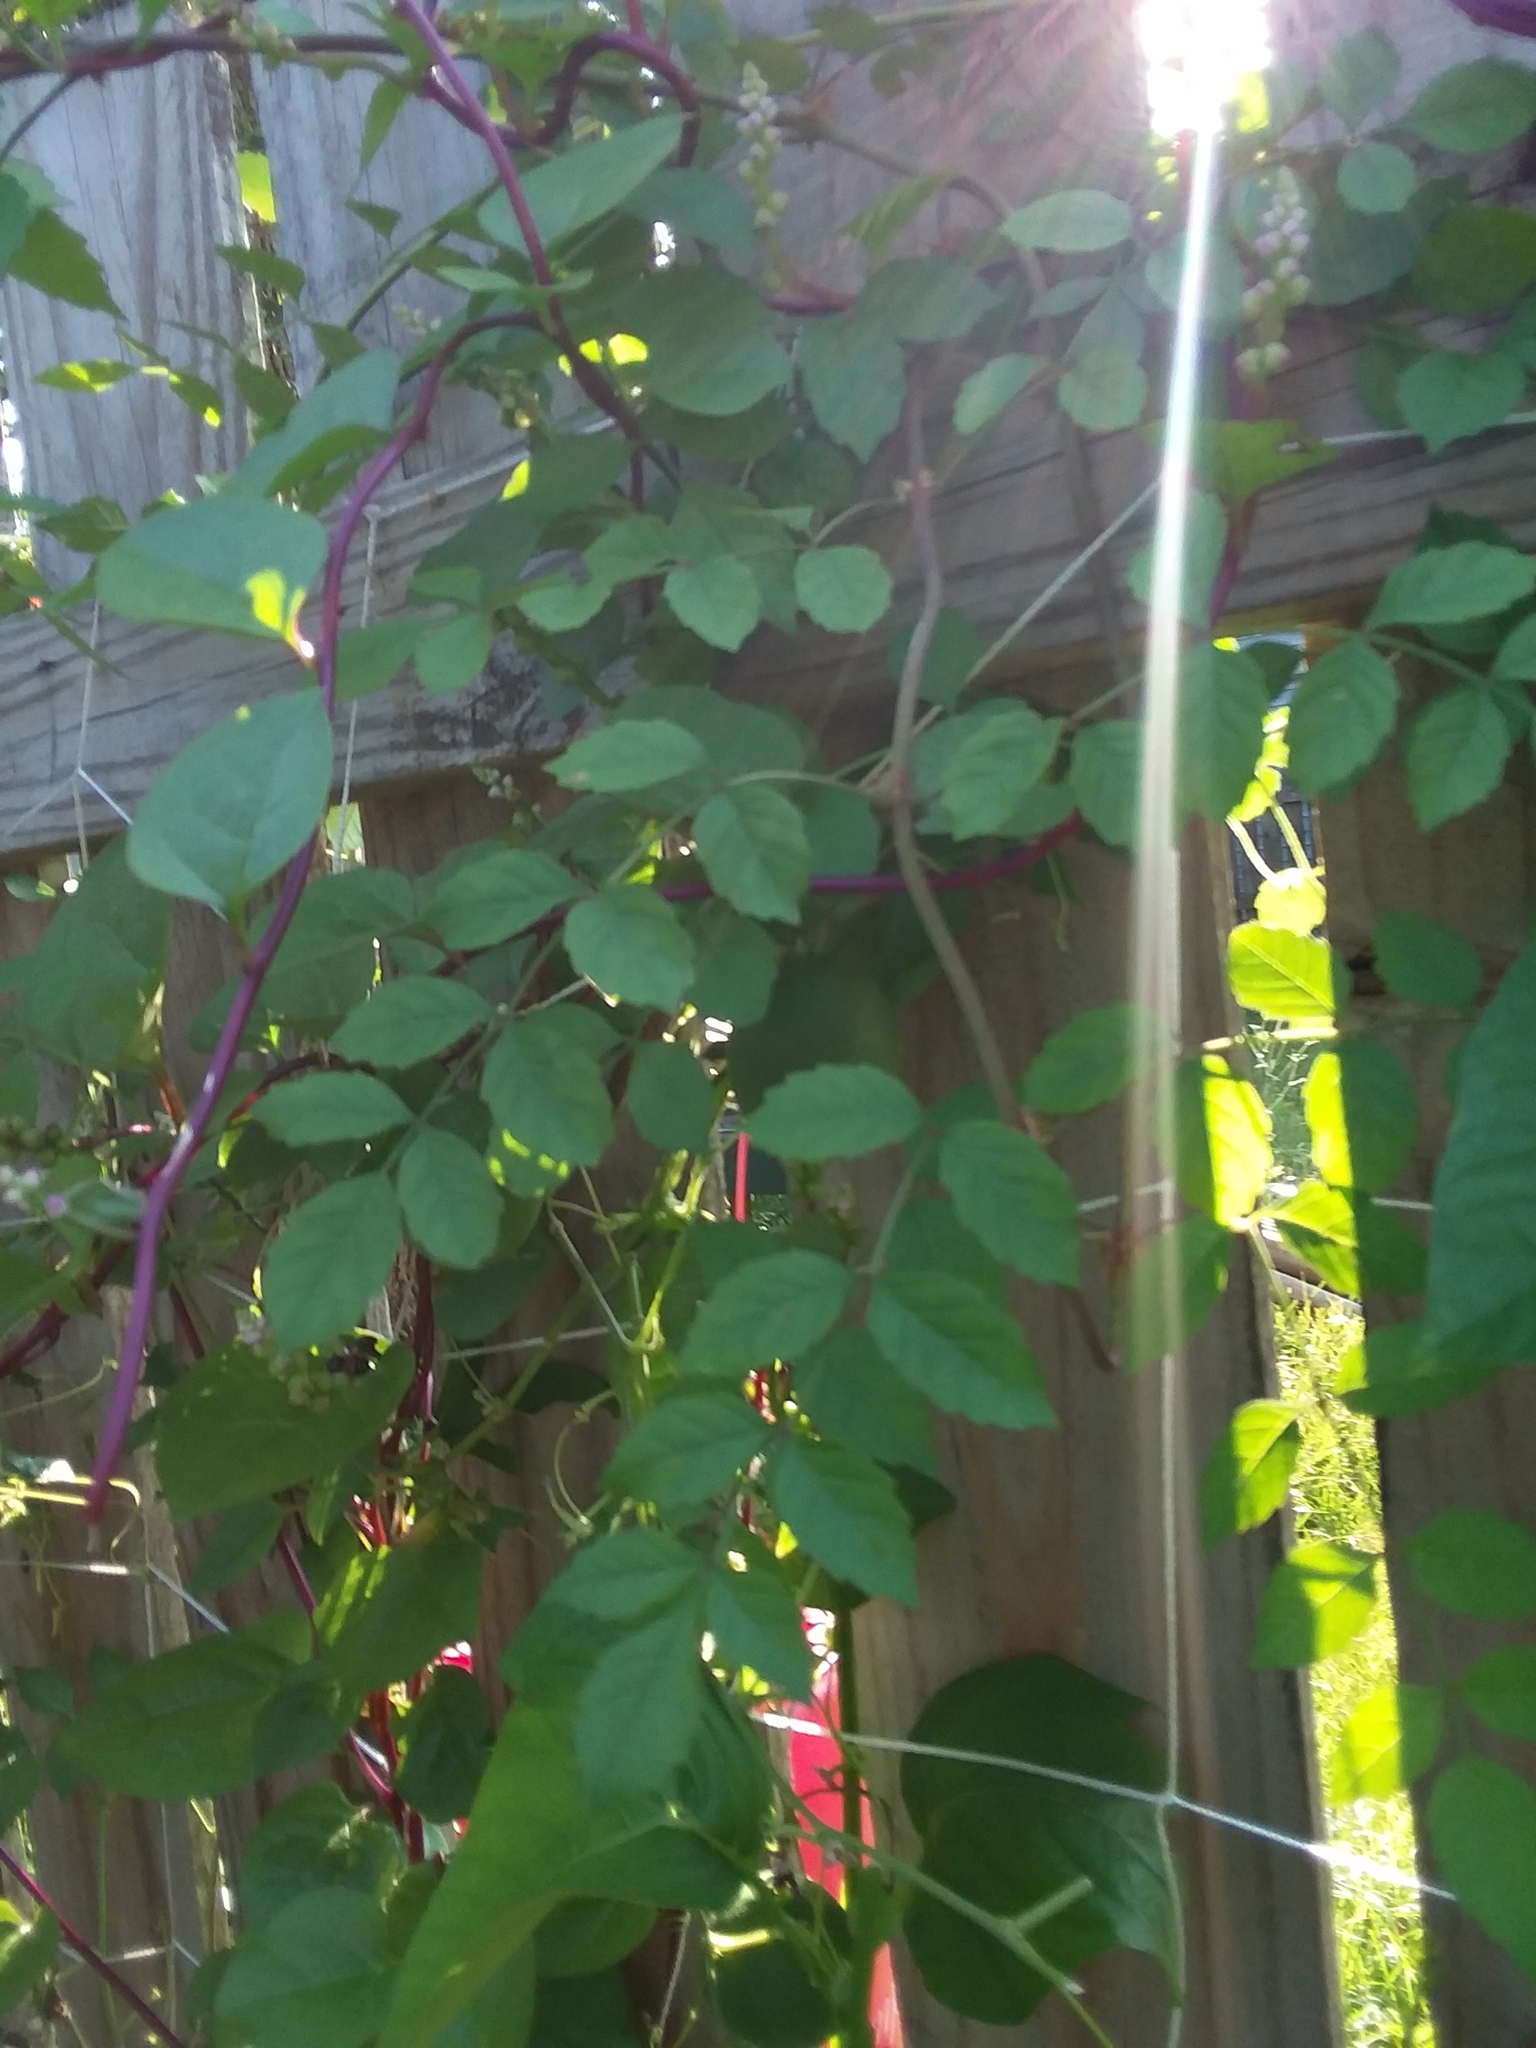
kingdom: Plantae
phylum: Tracheophyta
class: Magnoliopsida
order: Lamiales
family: Bignoniaceae
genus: Campsis
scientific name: Campsis radicans
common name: Trumpet-creeper
